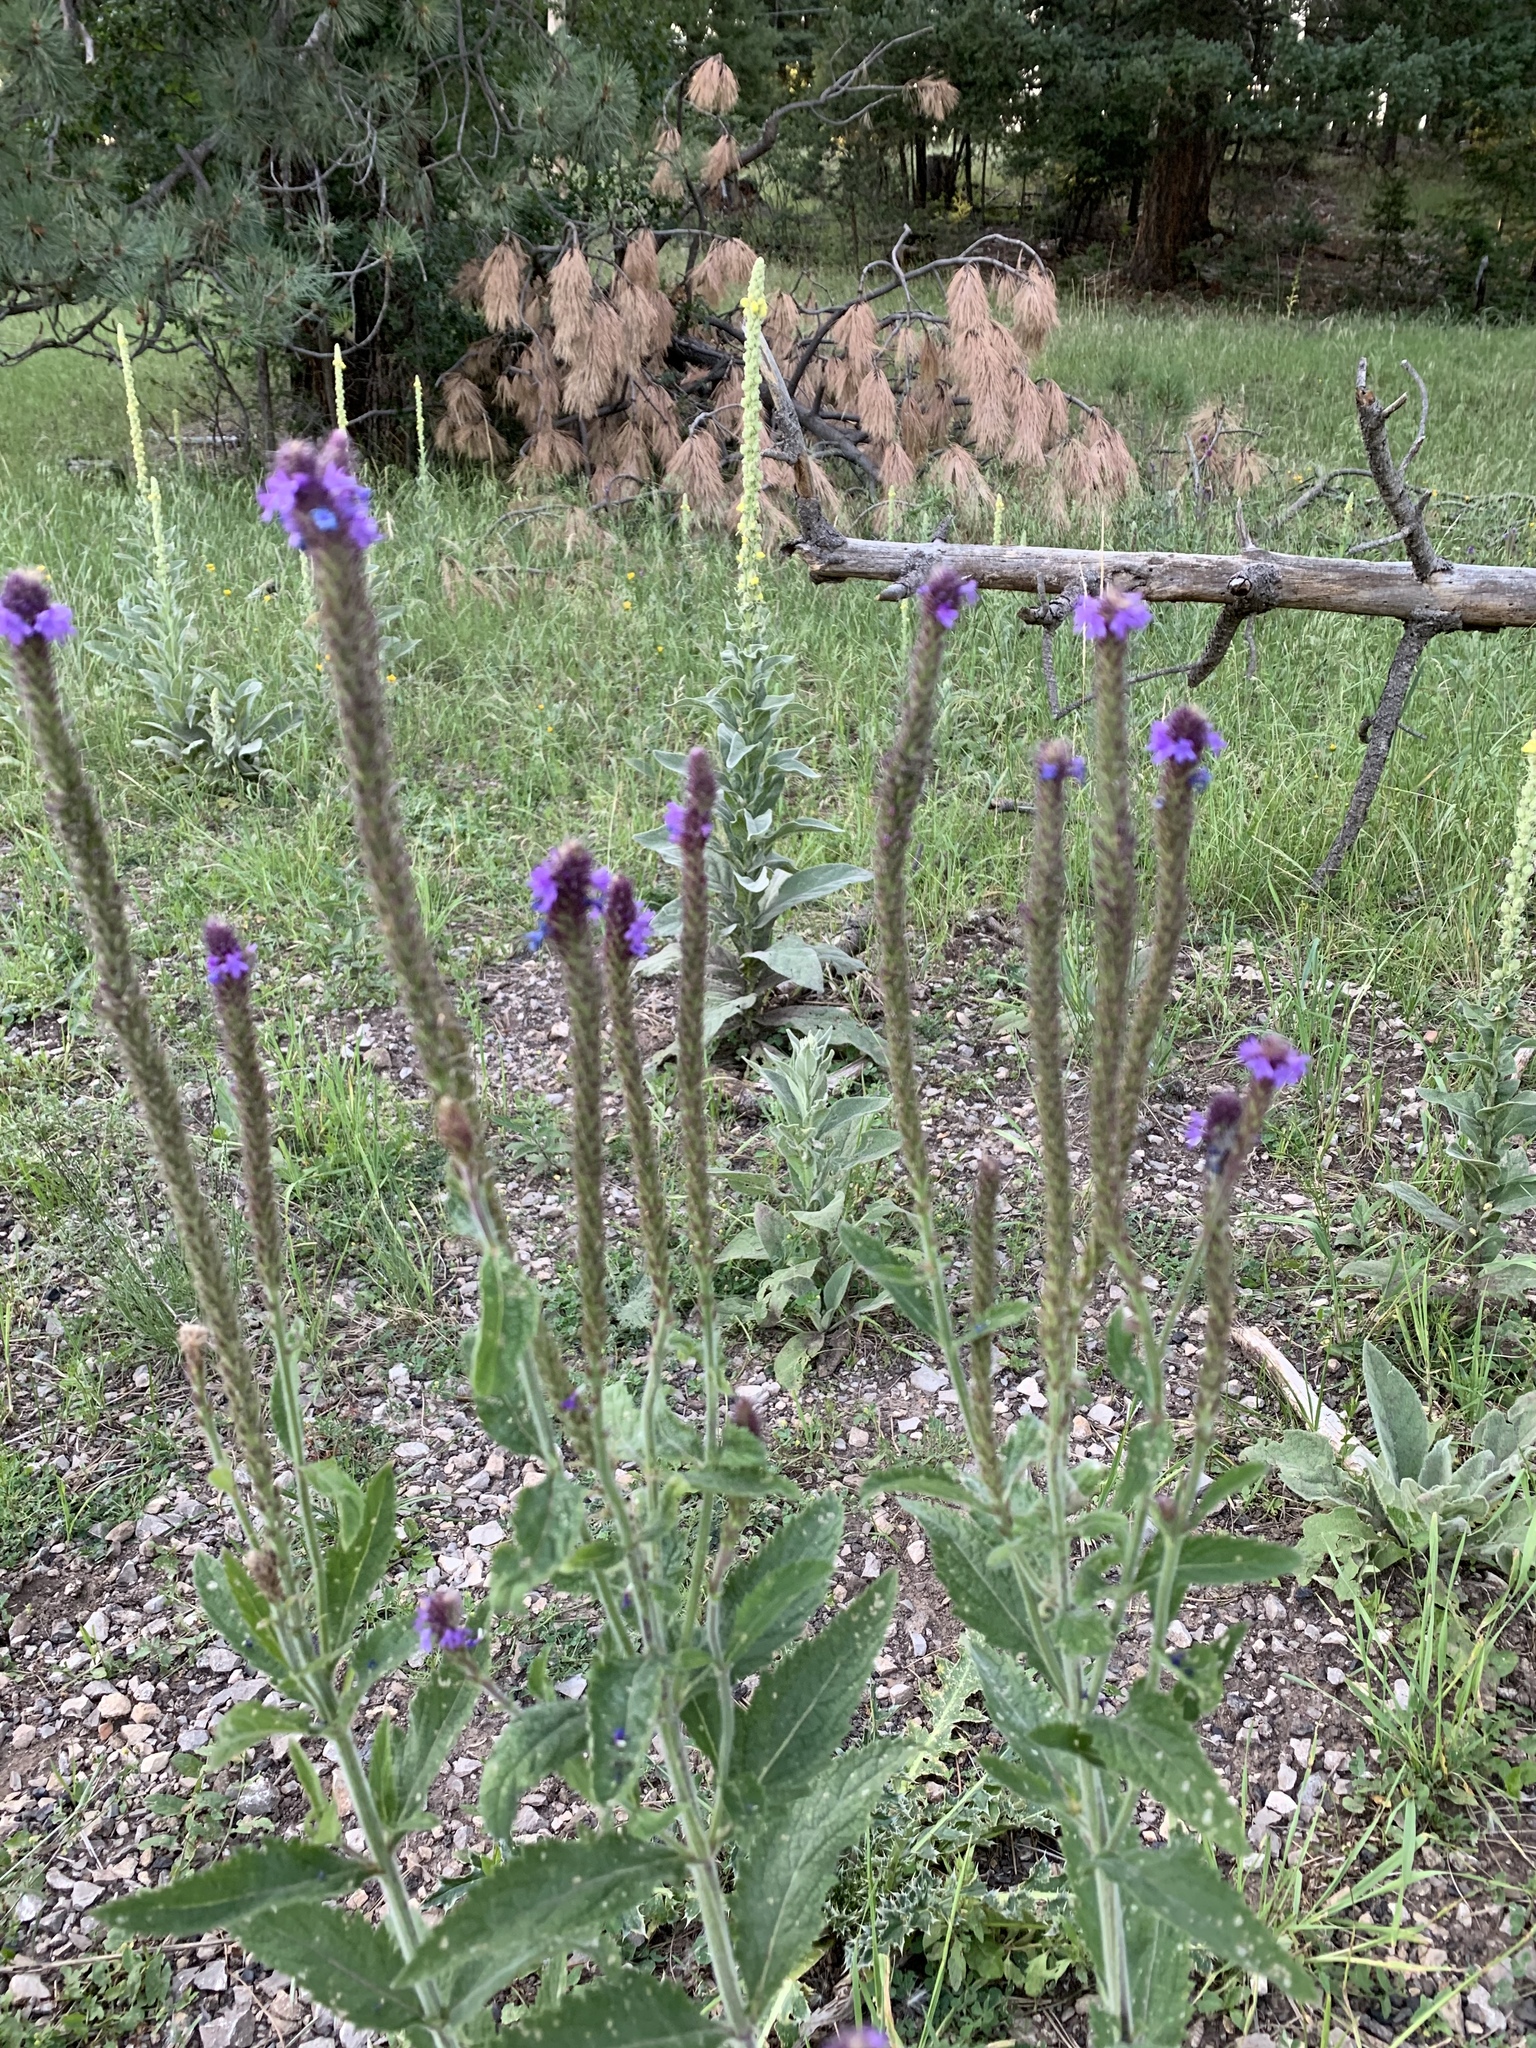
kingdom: Plantae
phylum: Tracheophyta
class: Magnoliopsida
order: Lamiales
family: Verbenaceae
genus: Verbena
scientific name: Verbena macdougalii
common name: New mexico vervain
